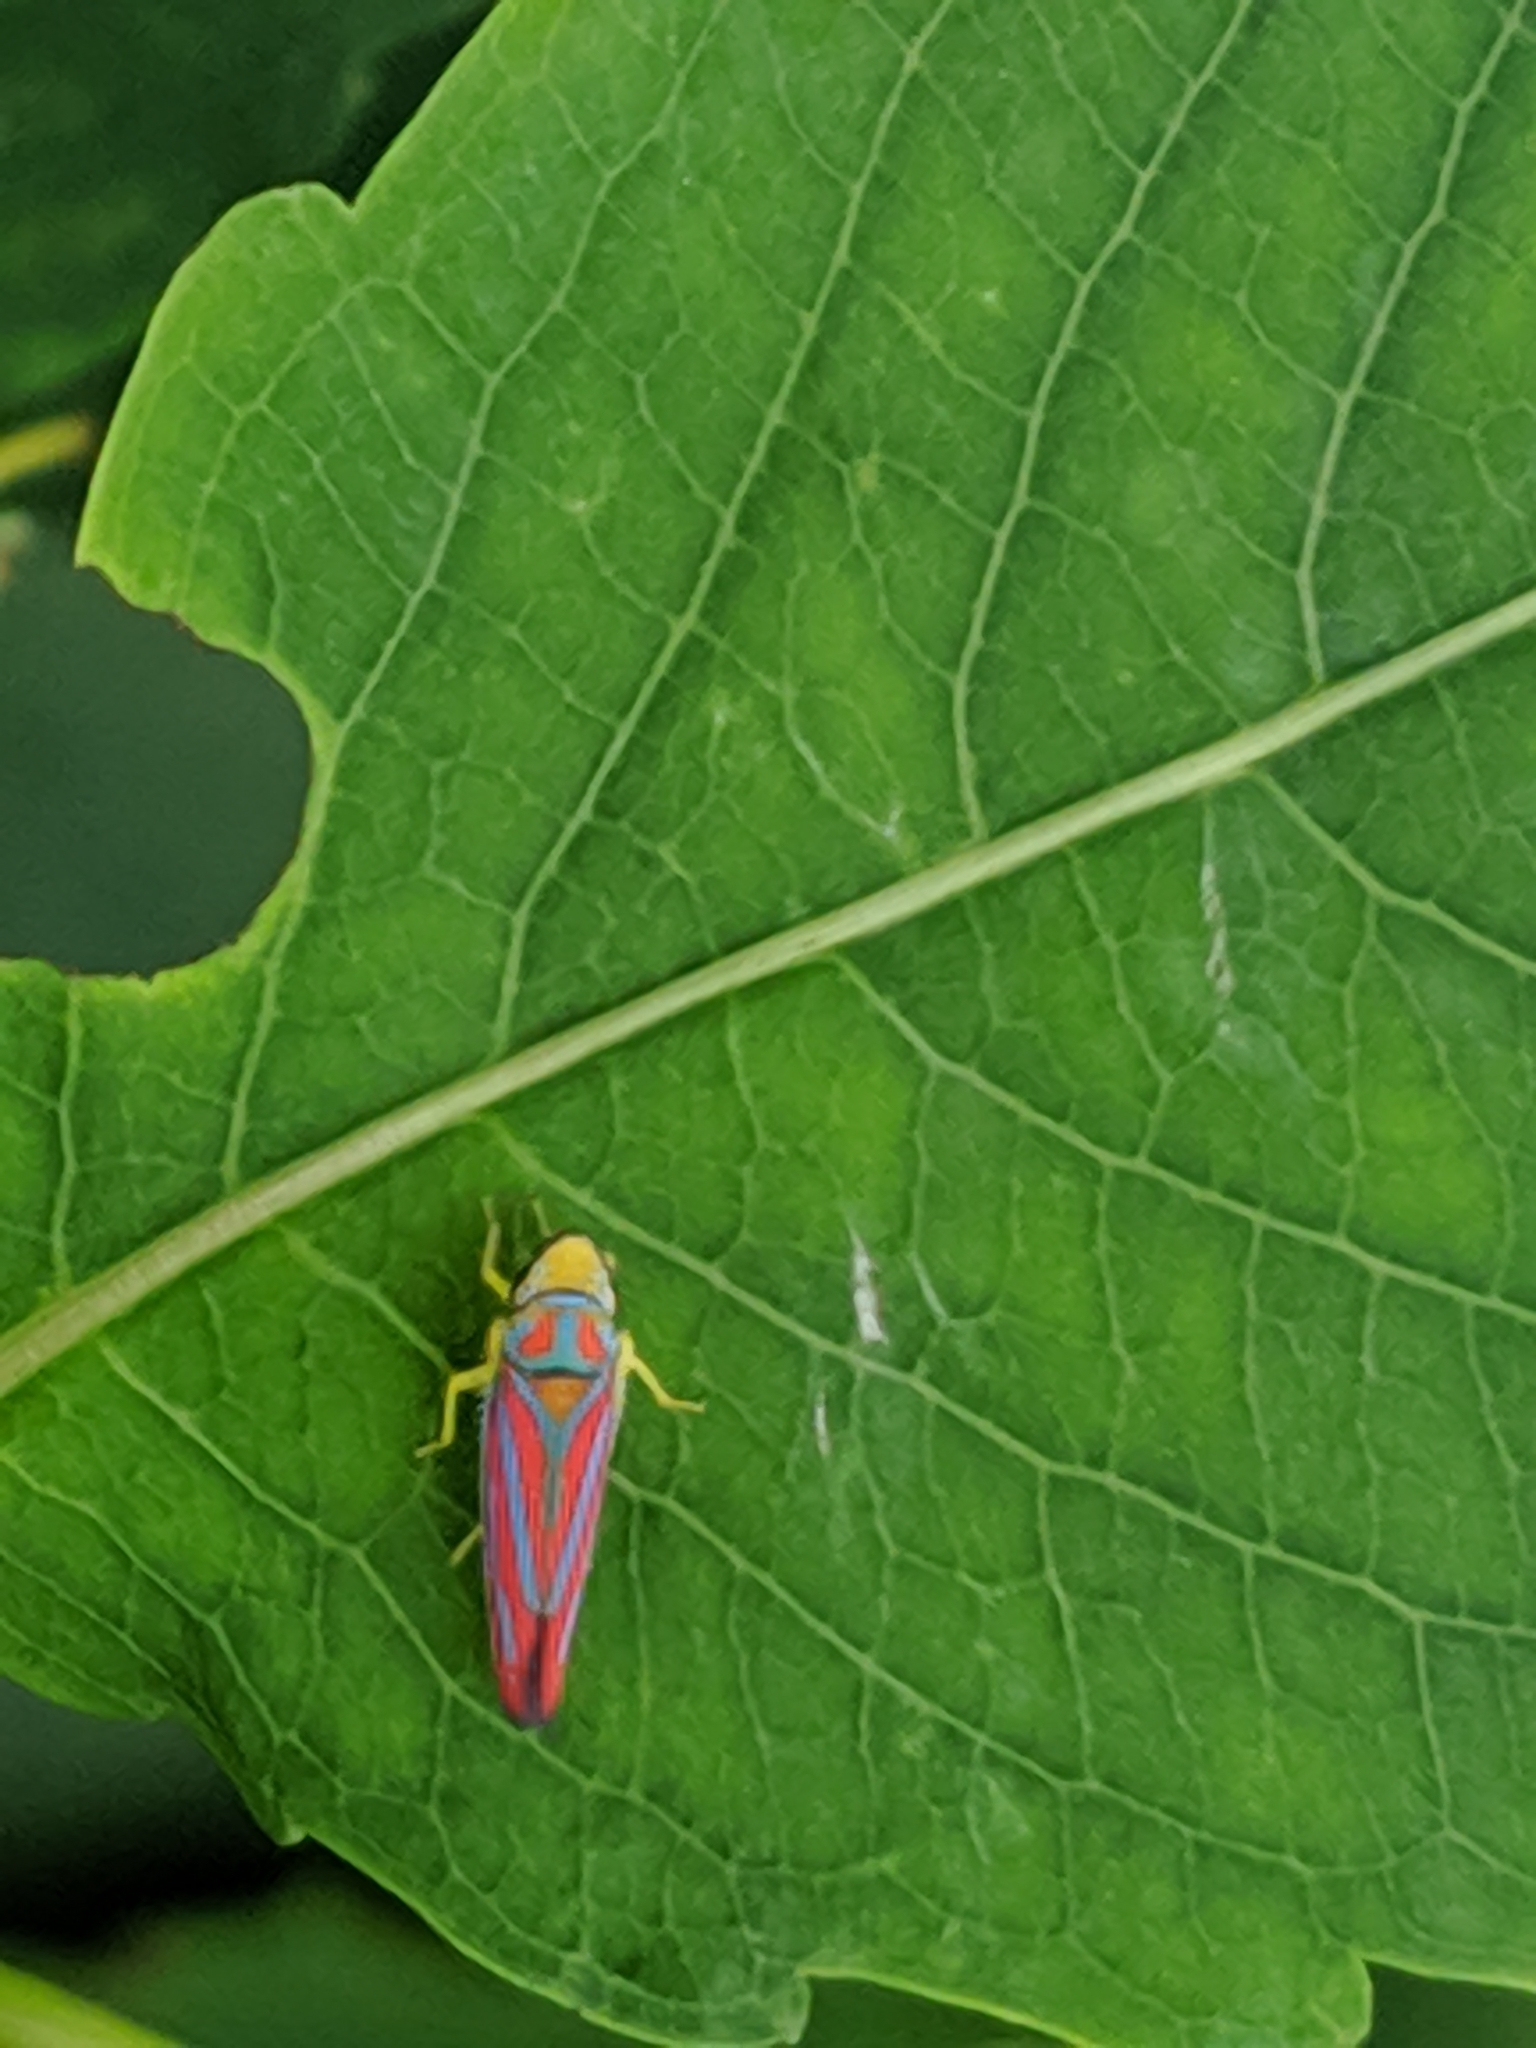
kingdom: Animalia
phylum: Arthropoda
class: Insecta
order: Hemiptera
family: Cicadellidae
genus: Graphocephala
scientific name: Graphocephala coccinea
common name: Candy-striped leafhopper
